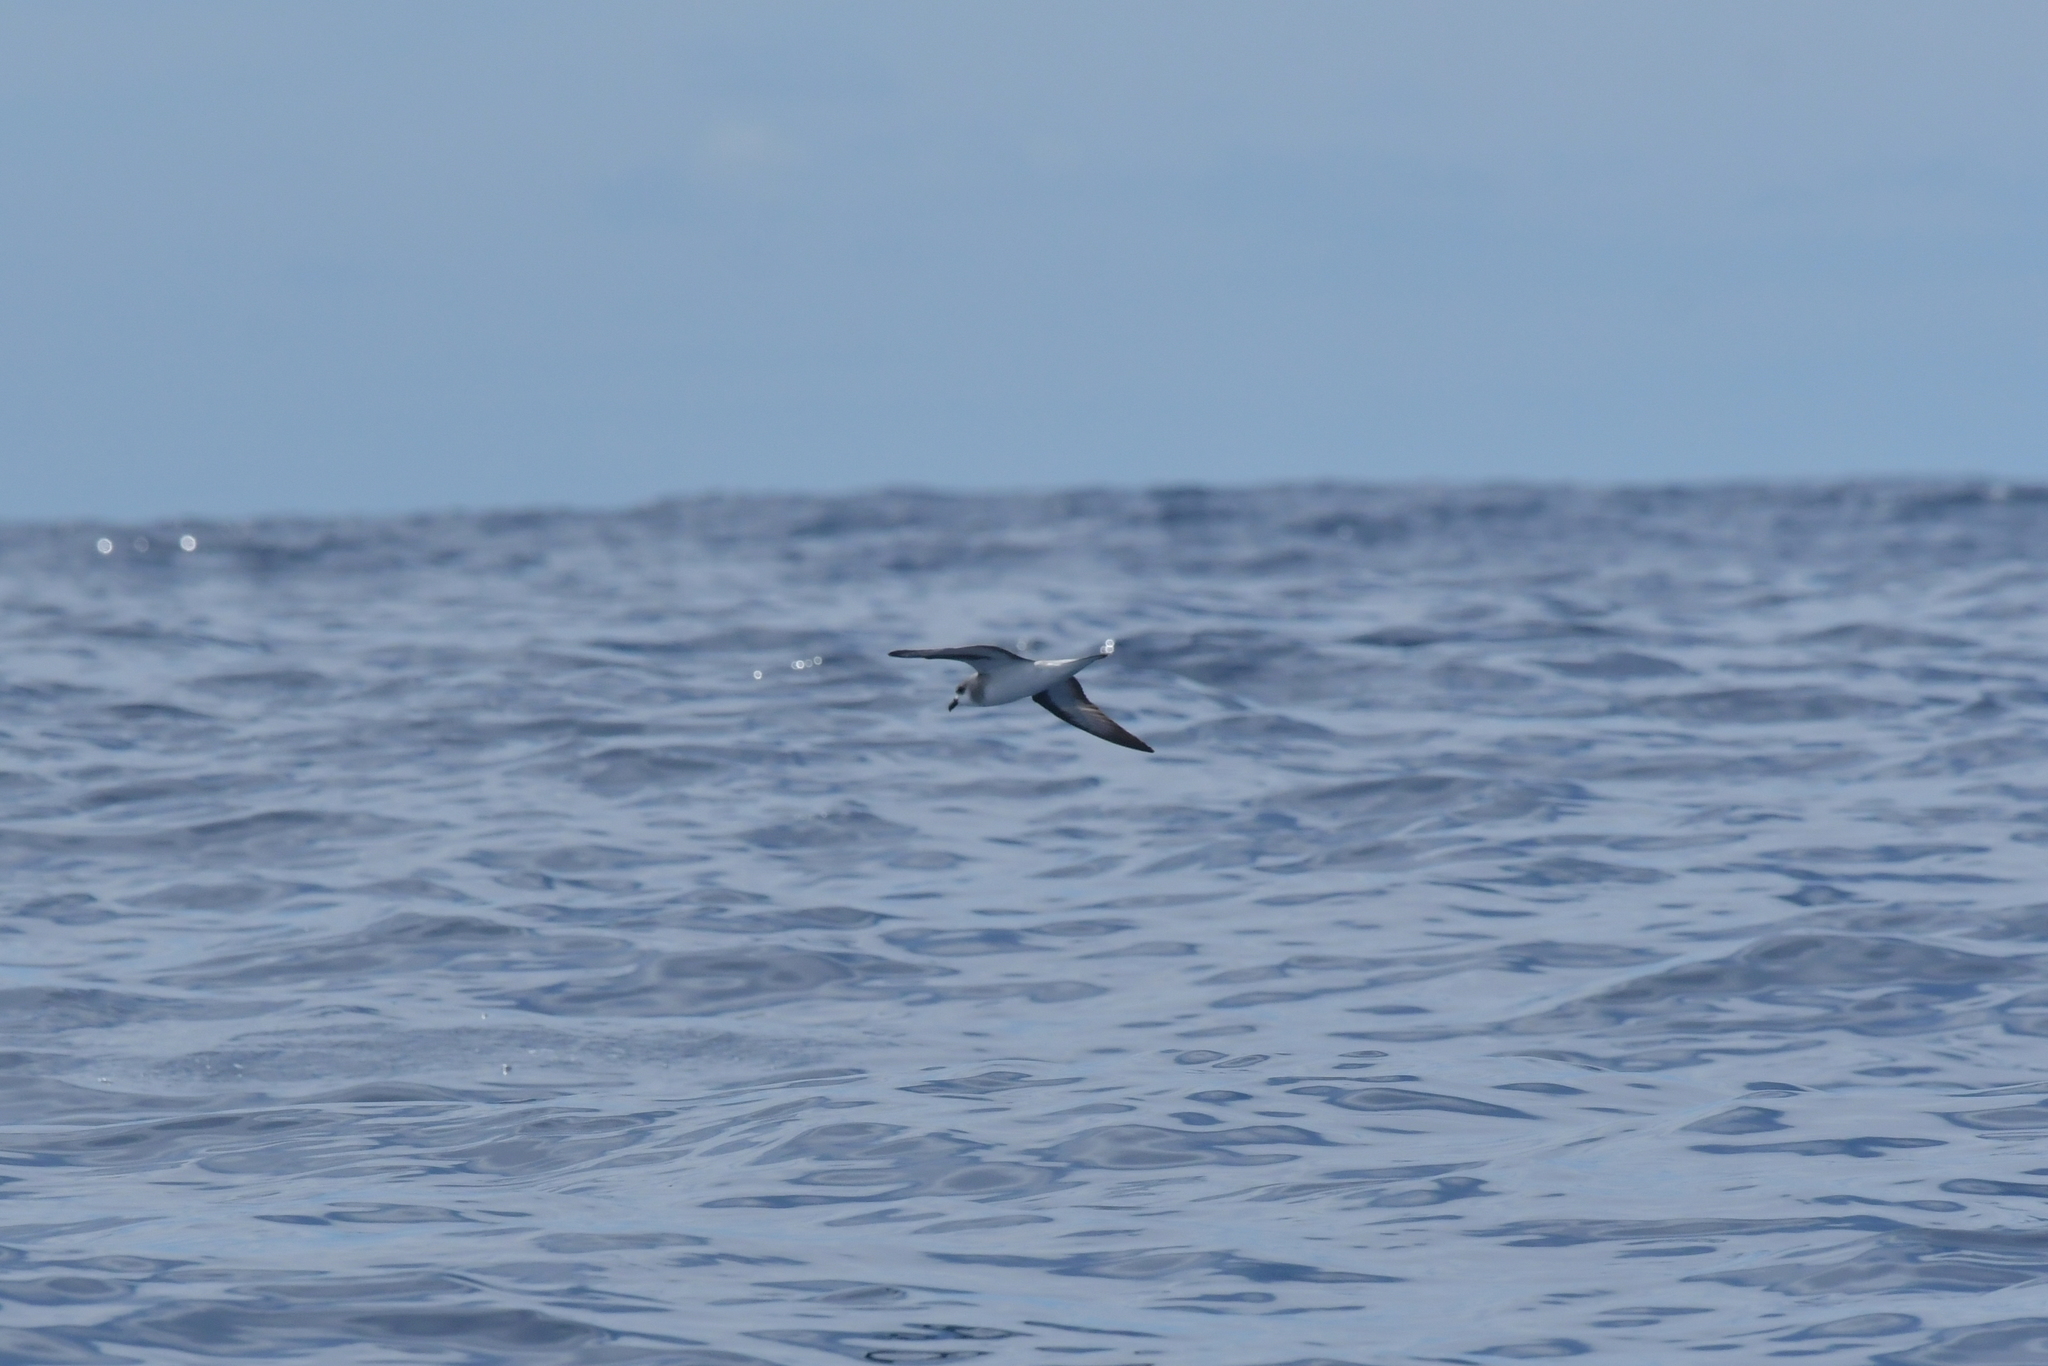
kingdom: Animalia
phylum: Chordata
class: Aves
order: Procellariiformes
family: Procellariidae
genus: Pterodroma
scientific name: Pterodroma nigripennis
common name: Black-winged petrel
